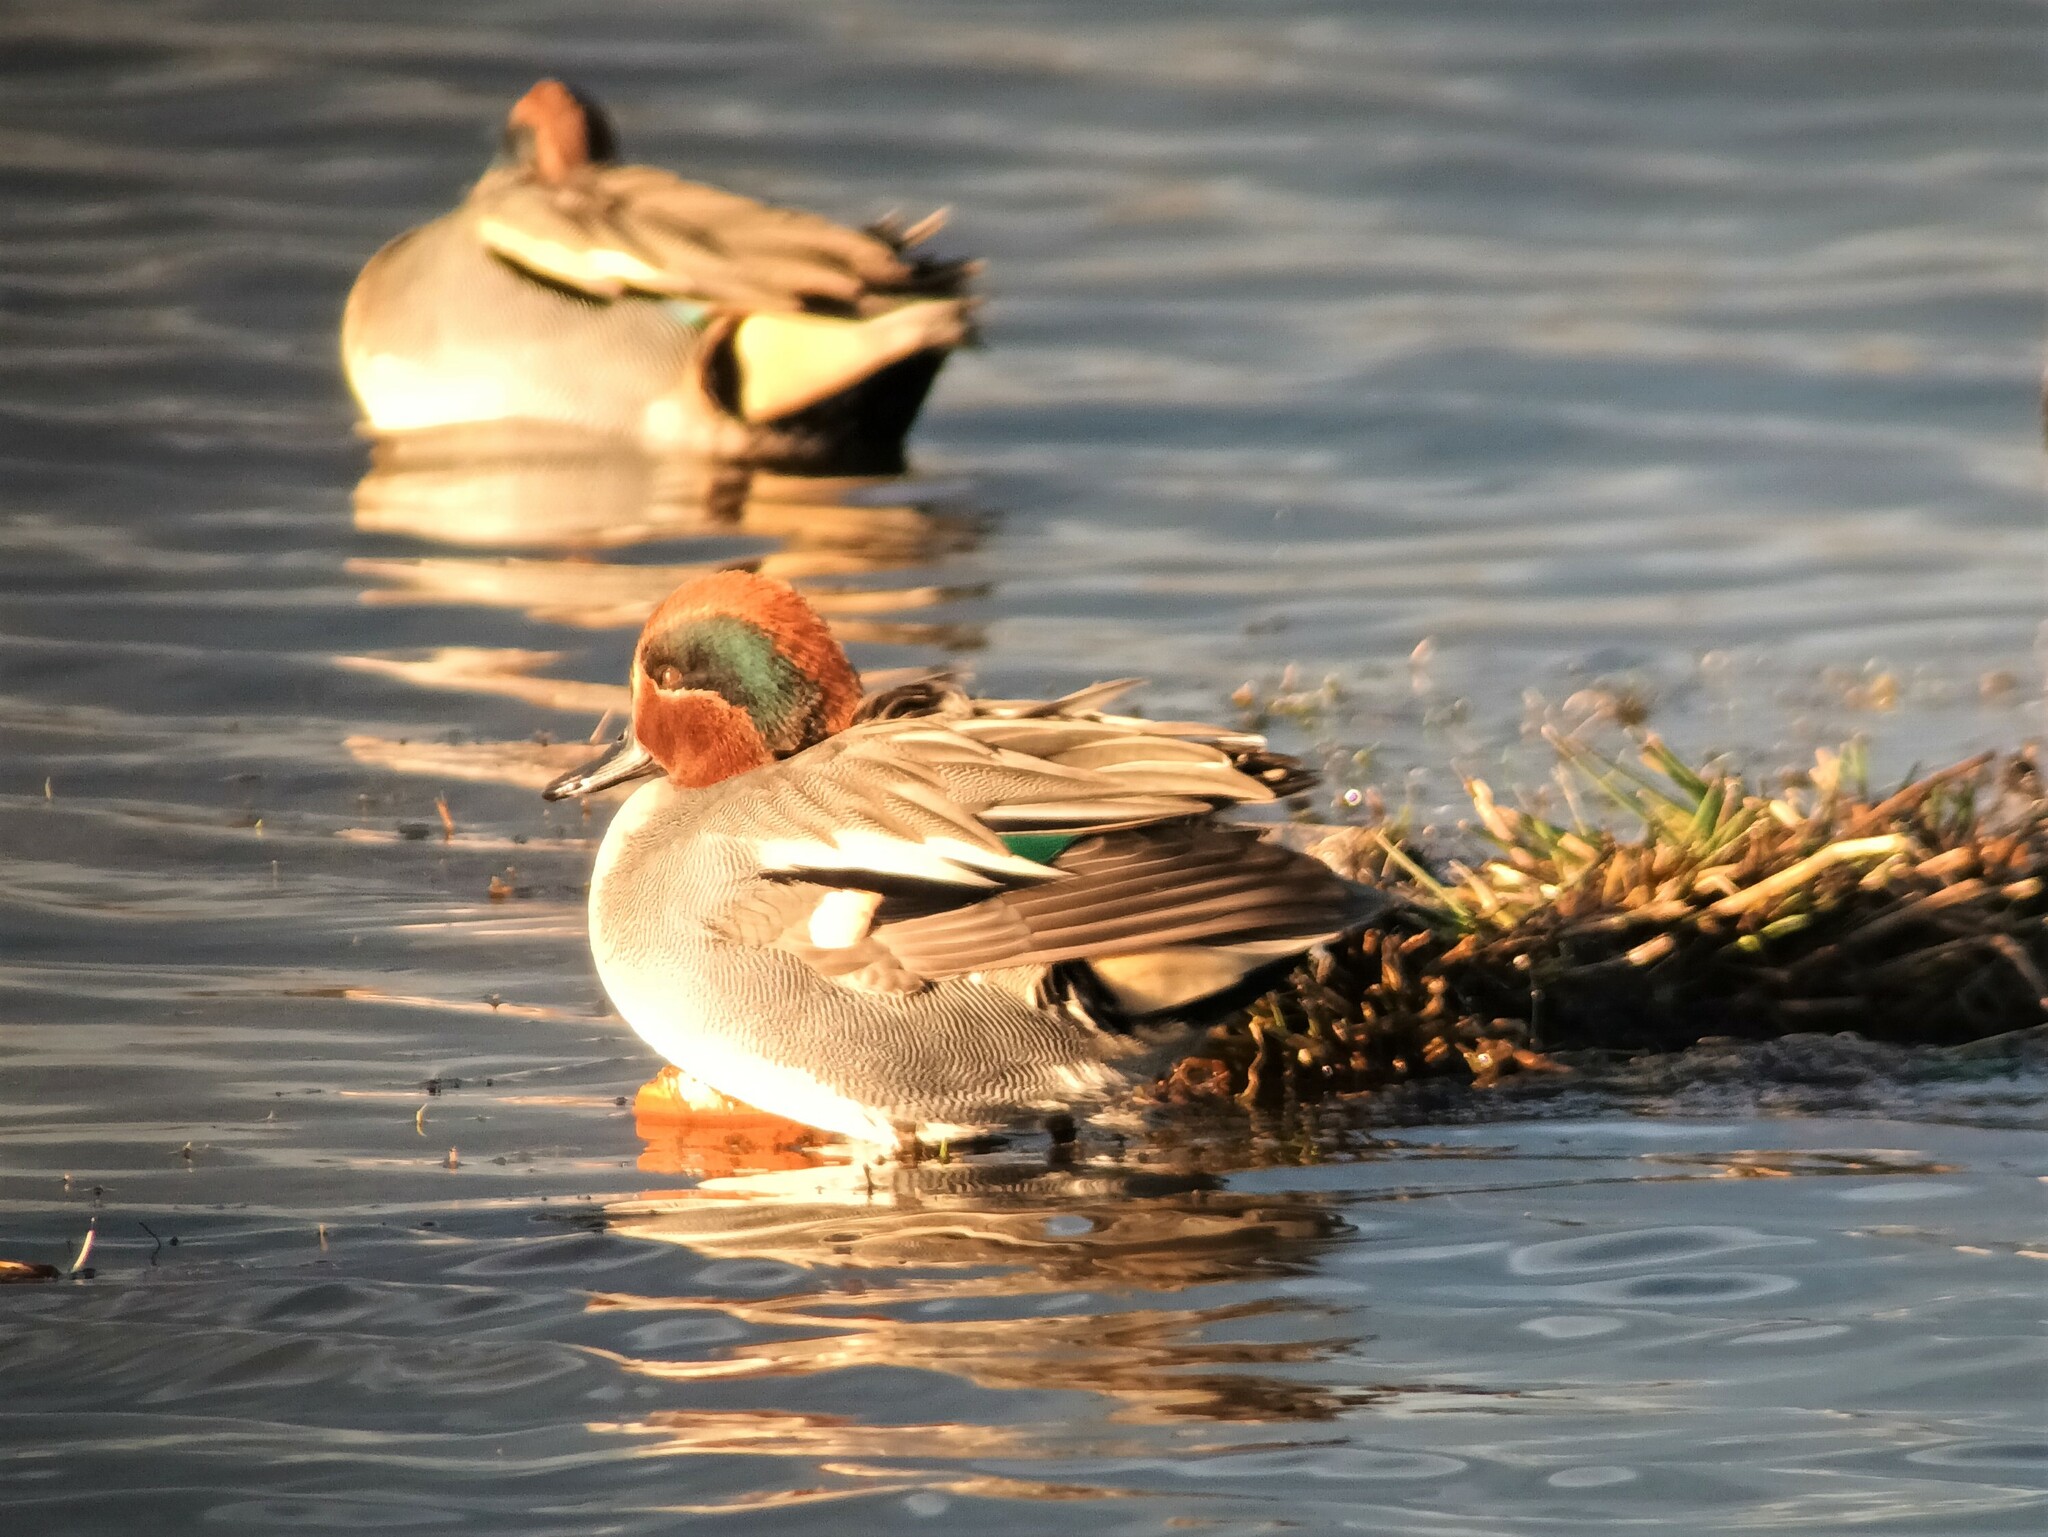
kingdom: Animalia
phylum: Chordata
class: Aves
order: Anseriformes
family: Anatidae
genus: Anas
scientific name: Anas crecca
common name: Eurasian teal
